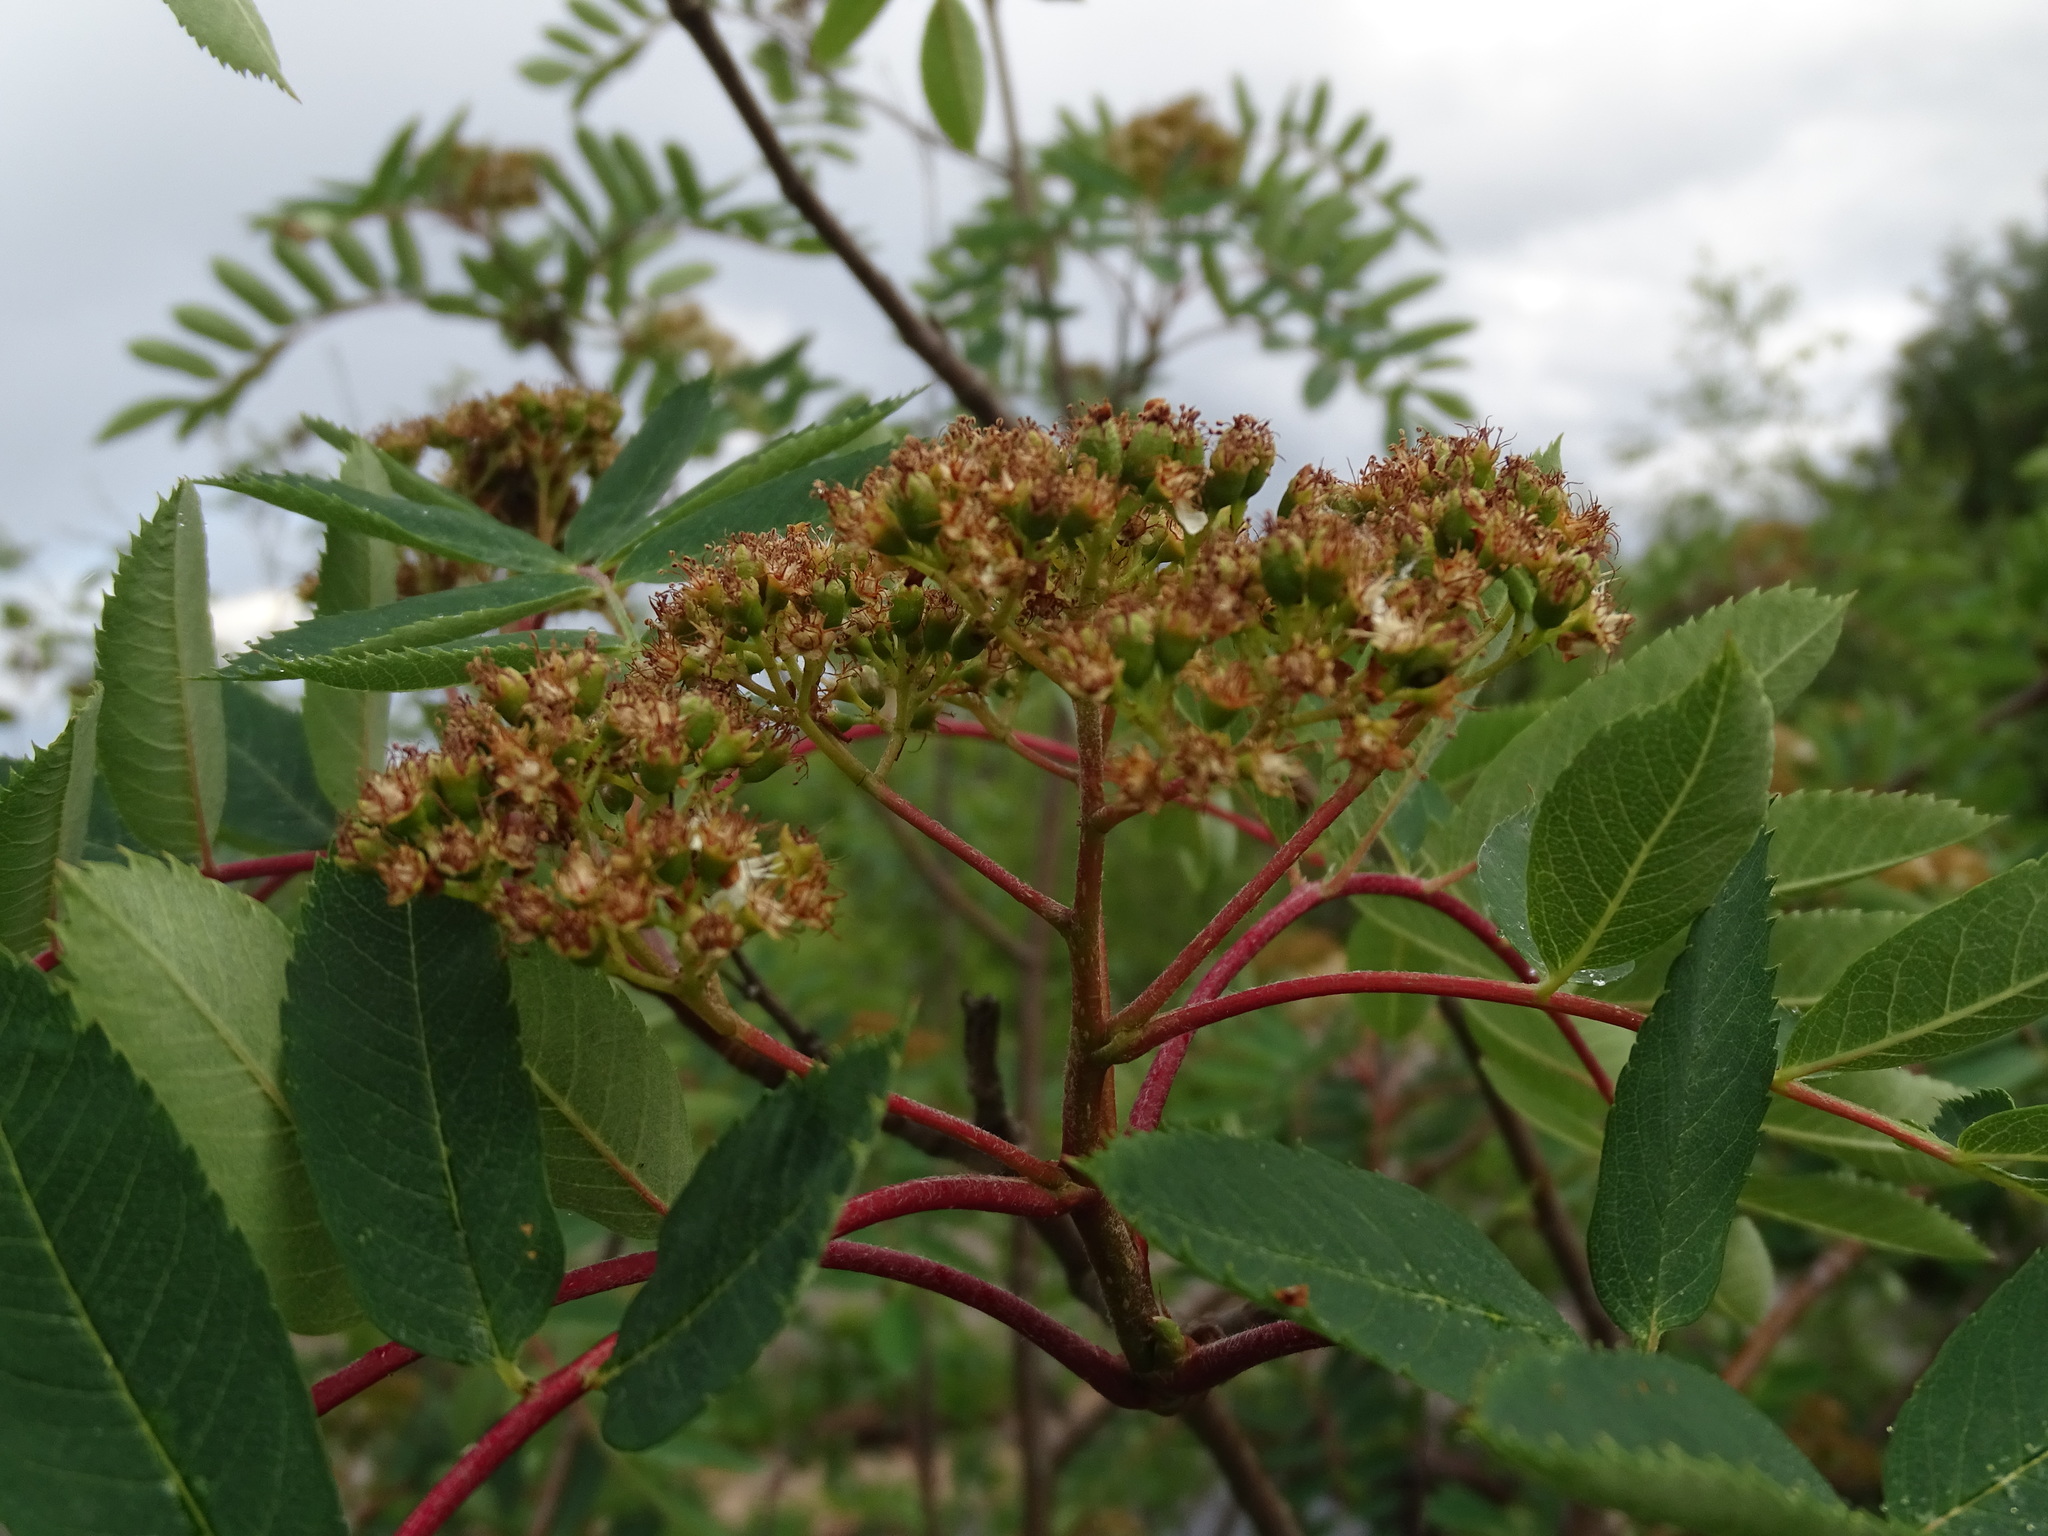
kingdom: Plantae
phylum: Tracheophyta
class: Magnoliopsida
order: Rosales
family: Rosaceae
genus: Sorbus
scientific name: Sorbus decora
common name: Northern mountain-ash
